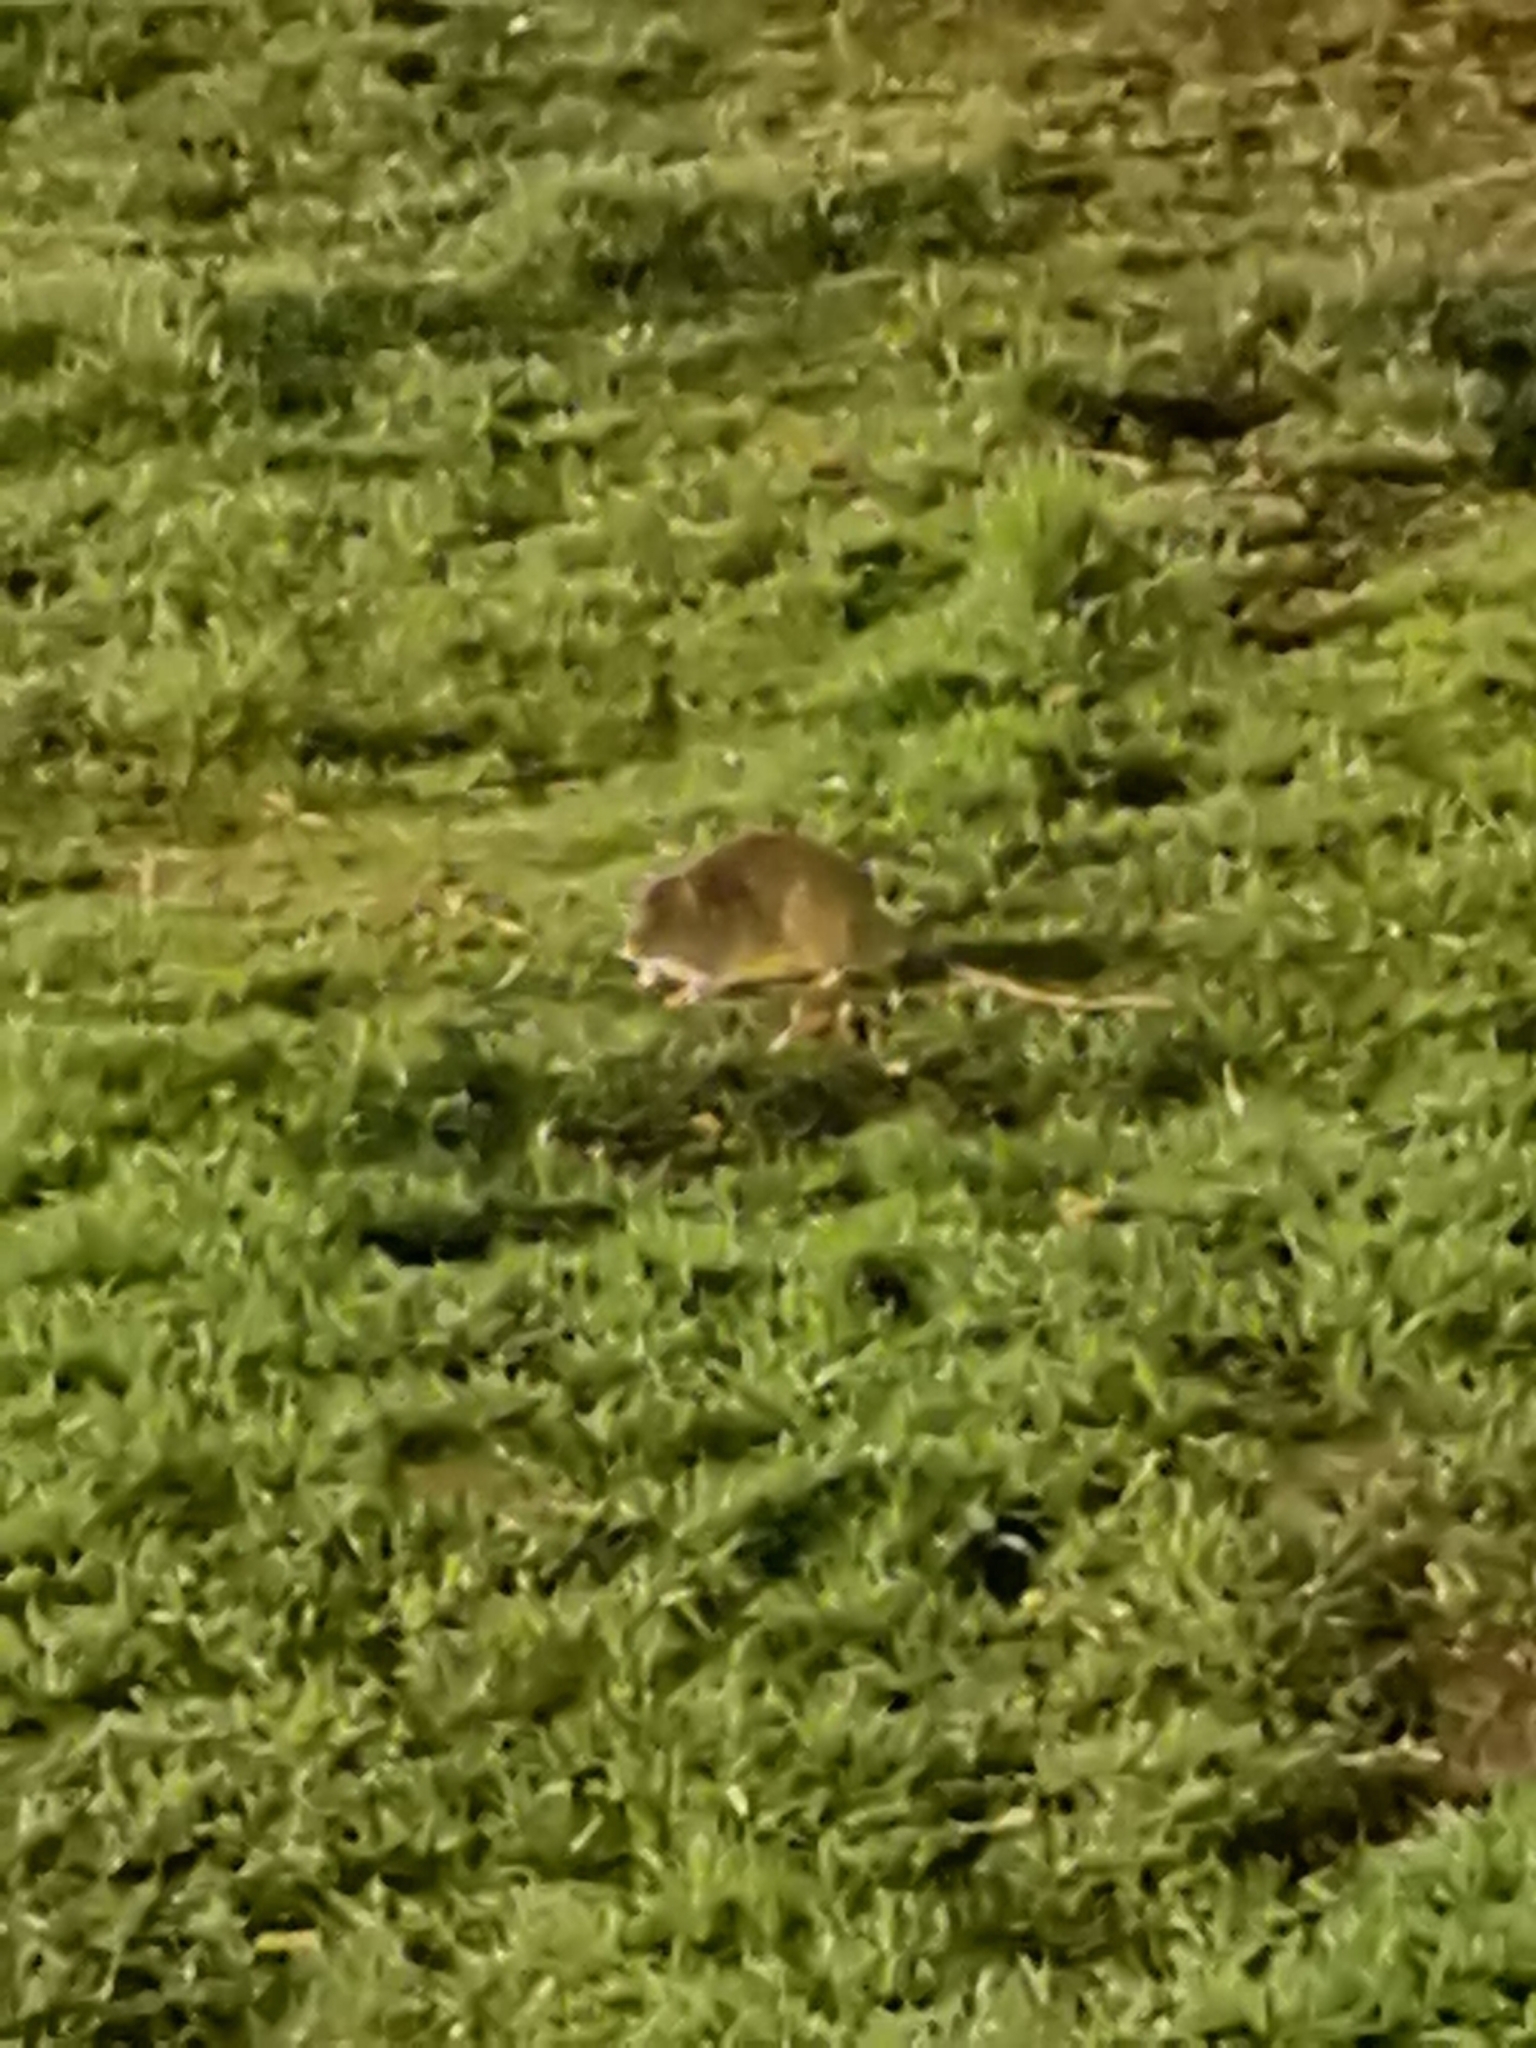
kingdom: Animalia
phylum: Chordata
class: Mammalia
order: Rodentia
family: Muridae
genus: Rattus
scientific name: Rattus norvegicus
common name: Brown rat
